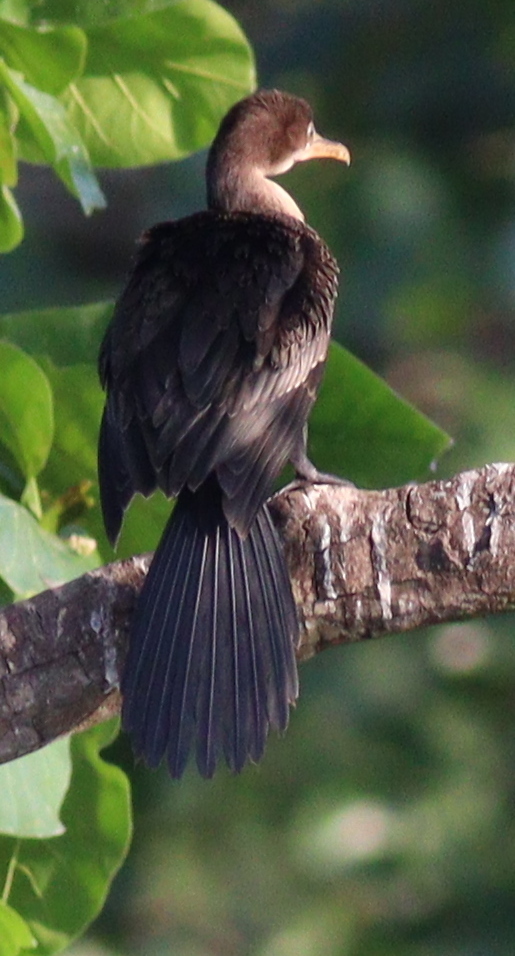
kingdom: Animalia
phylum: Chordata
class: Aves
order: Suliformes
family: Phalacrocoracidae
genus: Microcarbo
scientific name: Microcarbo africanus
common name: Long-tailed cormorant
